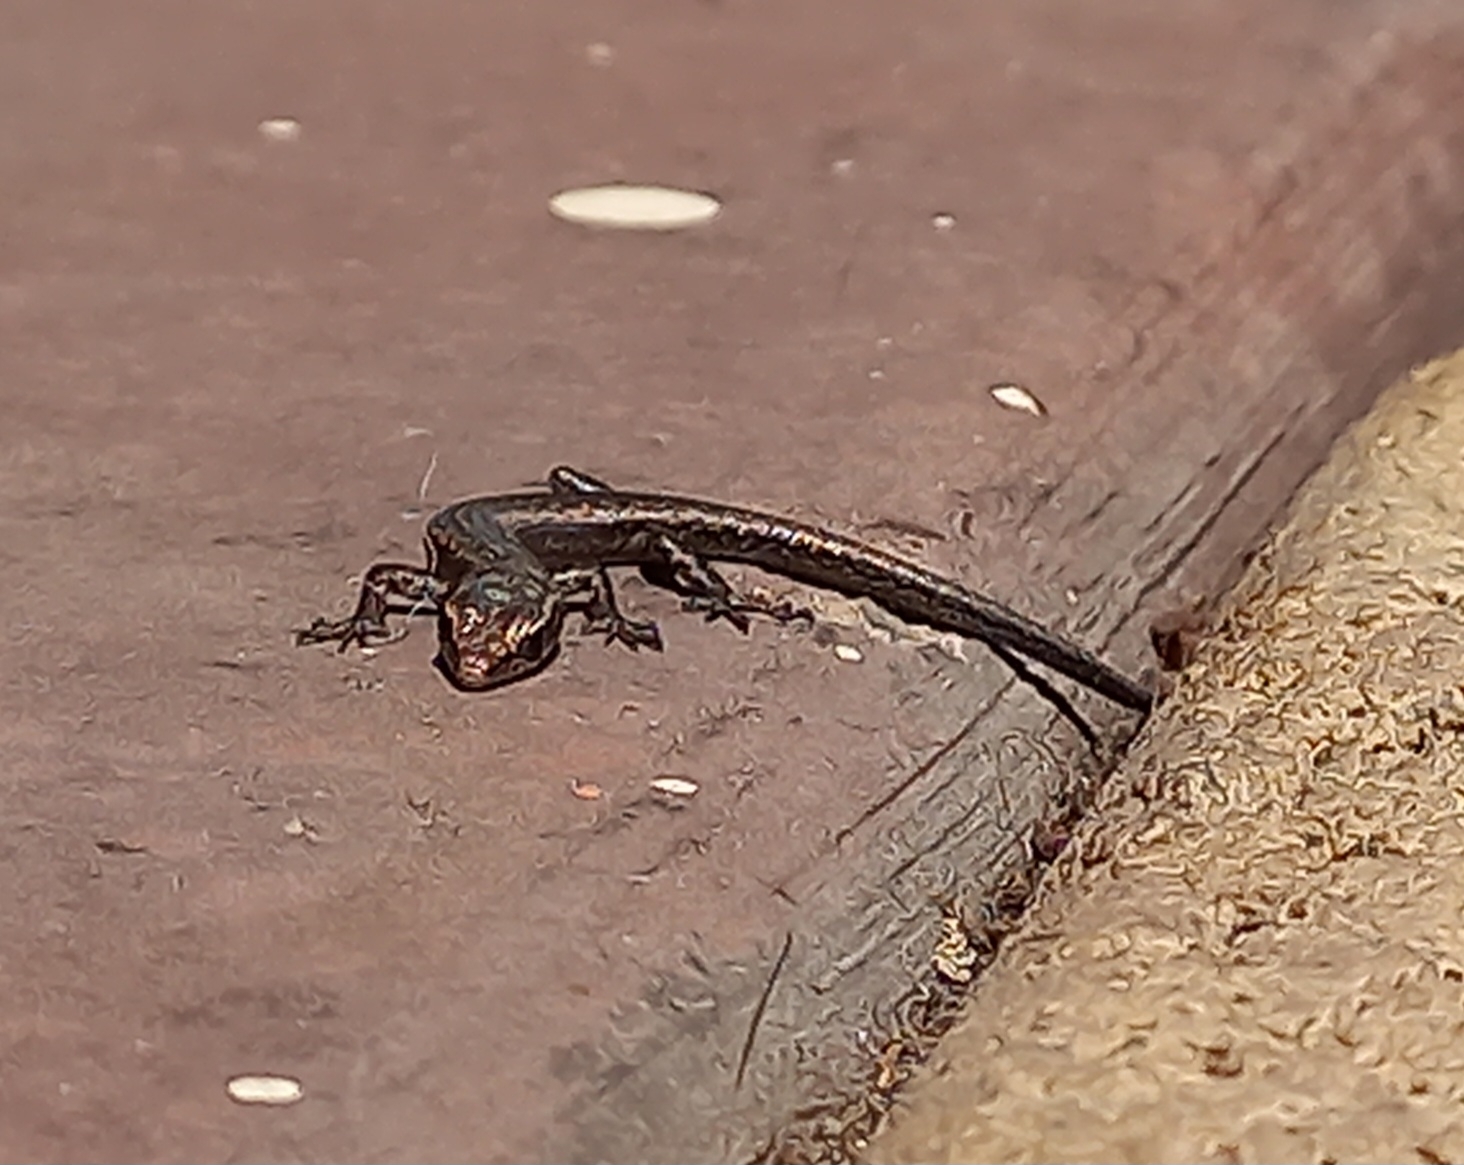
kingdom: Animalia
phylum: Chordata
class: Squamata
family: Scincidae
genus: Cryptoblepharus
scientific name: Cryptoblepharus buchananii
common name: Buchanan's snake-eyed skink
